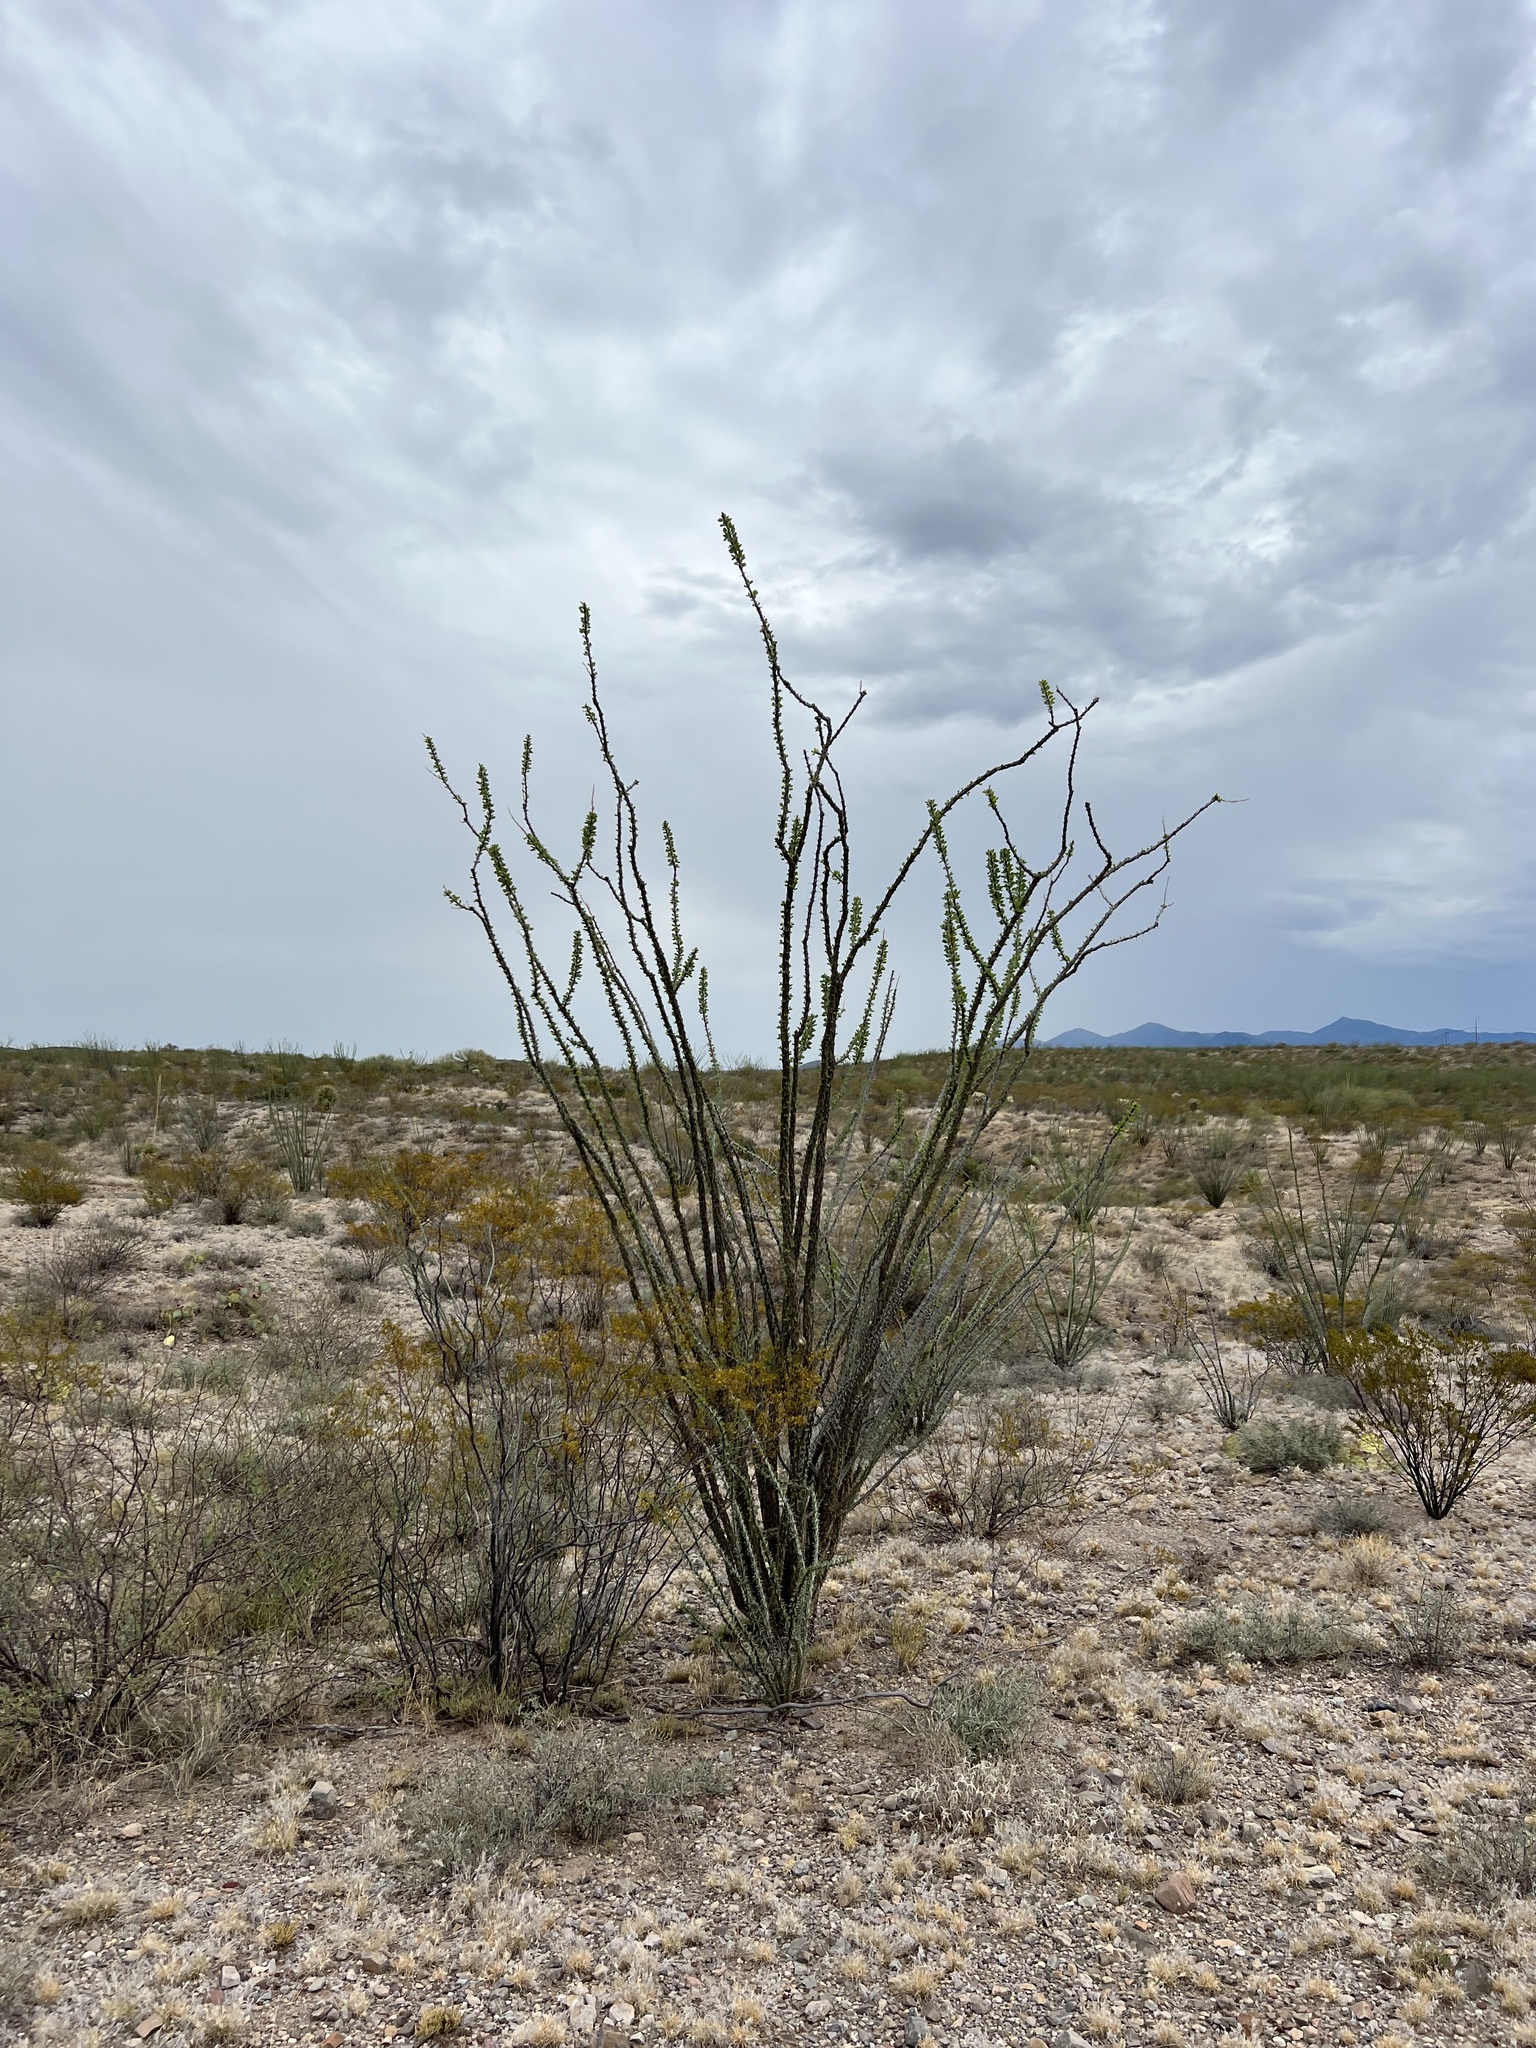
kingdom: Plantae
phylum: Tracheophyta
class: Magnoliopsida
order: Ericales
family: Fouquieriaceae
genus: Fouquieria
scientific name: Fouquieria splendens
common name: Vine-cactus
